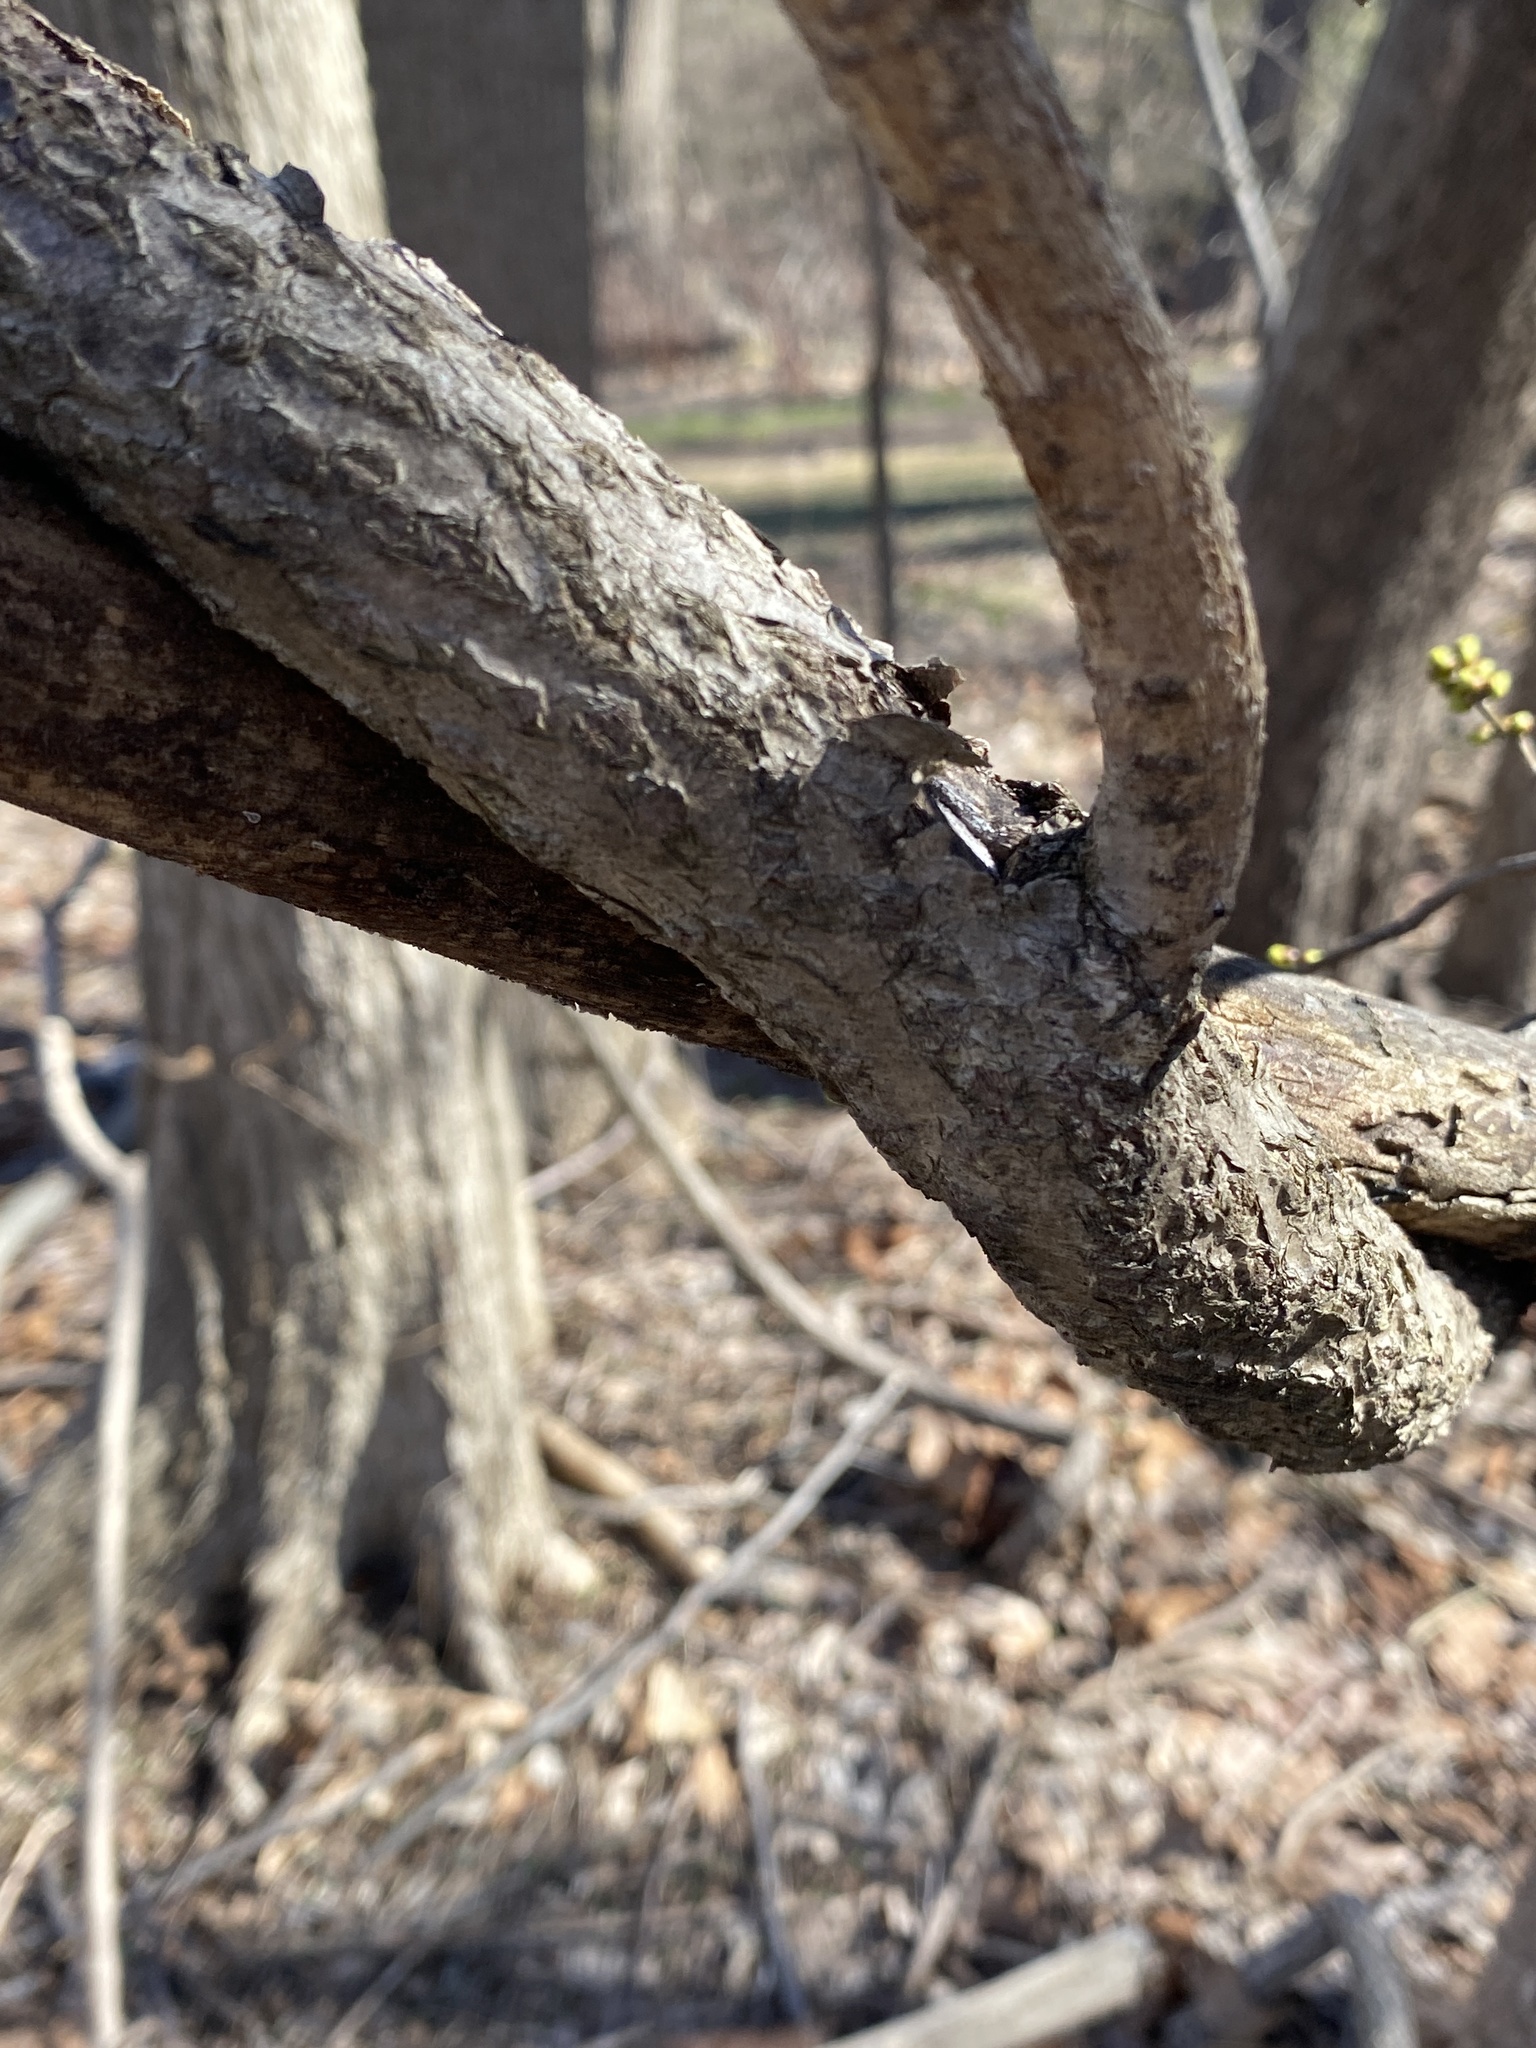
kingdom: Plantae
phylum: Tracheophyta
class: Magnoliopsida
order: Celastrales
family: Celastraceae
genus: Celastrus
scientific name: Celastrus orbiculatus
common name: Oriental bittersweet
